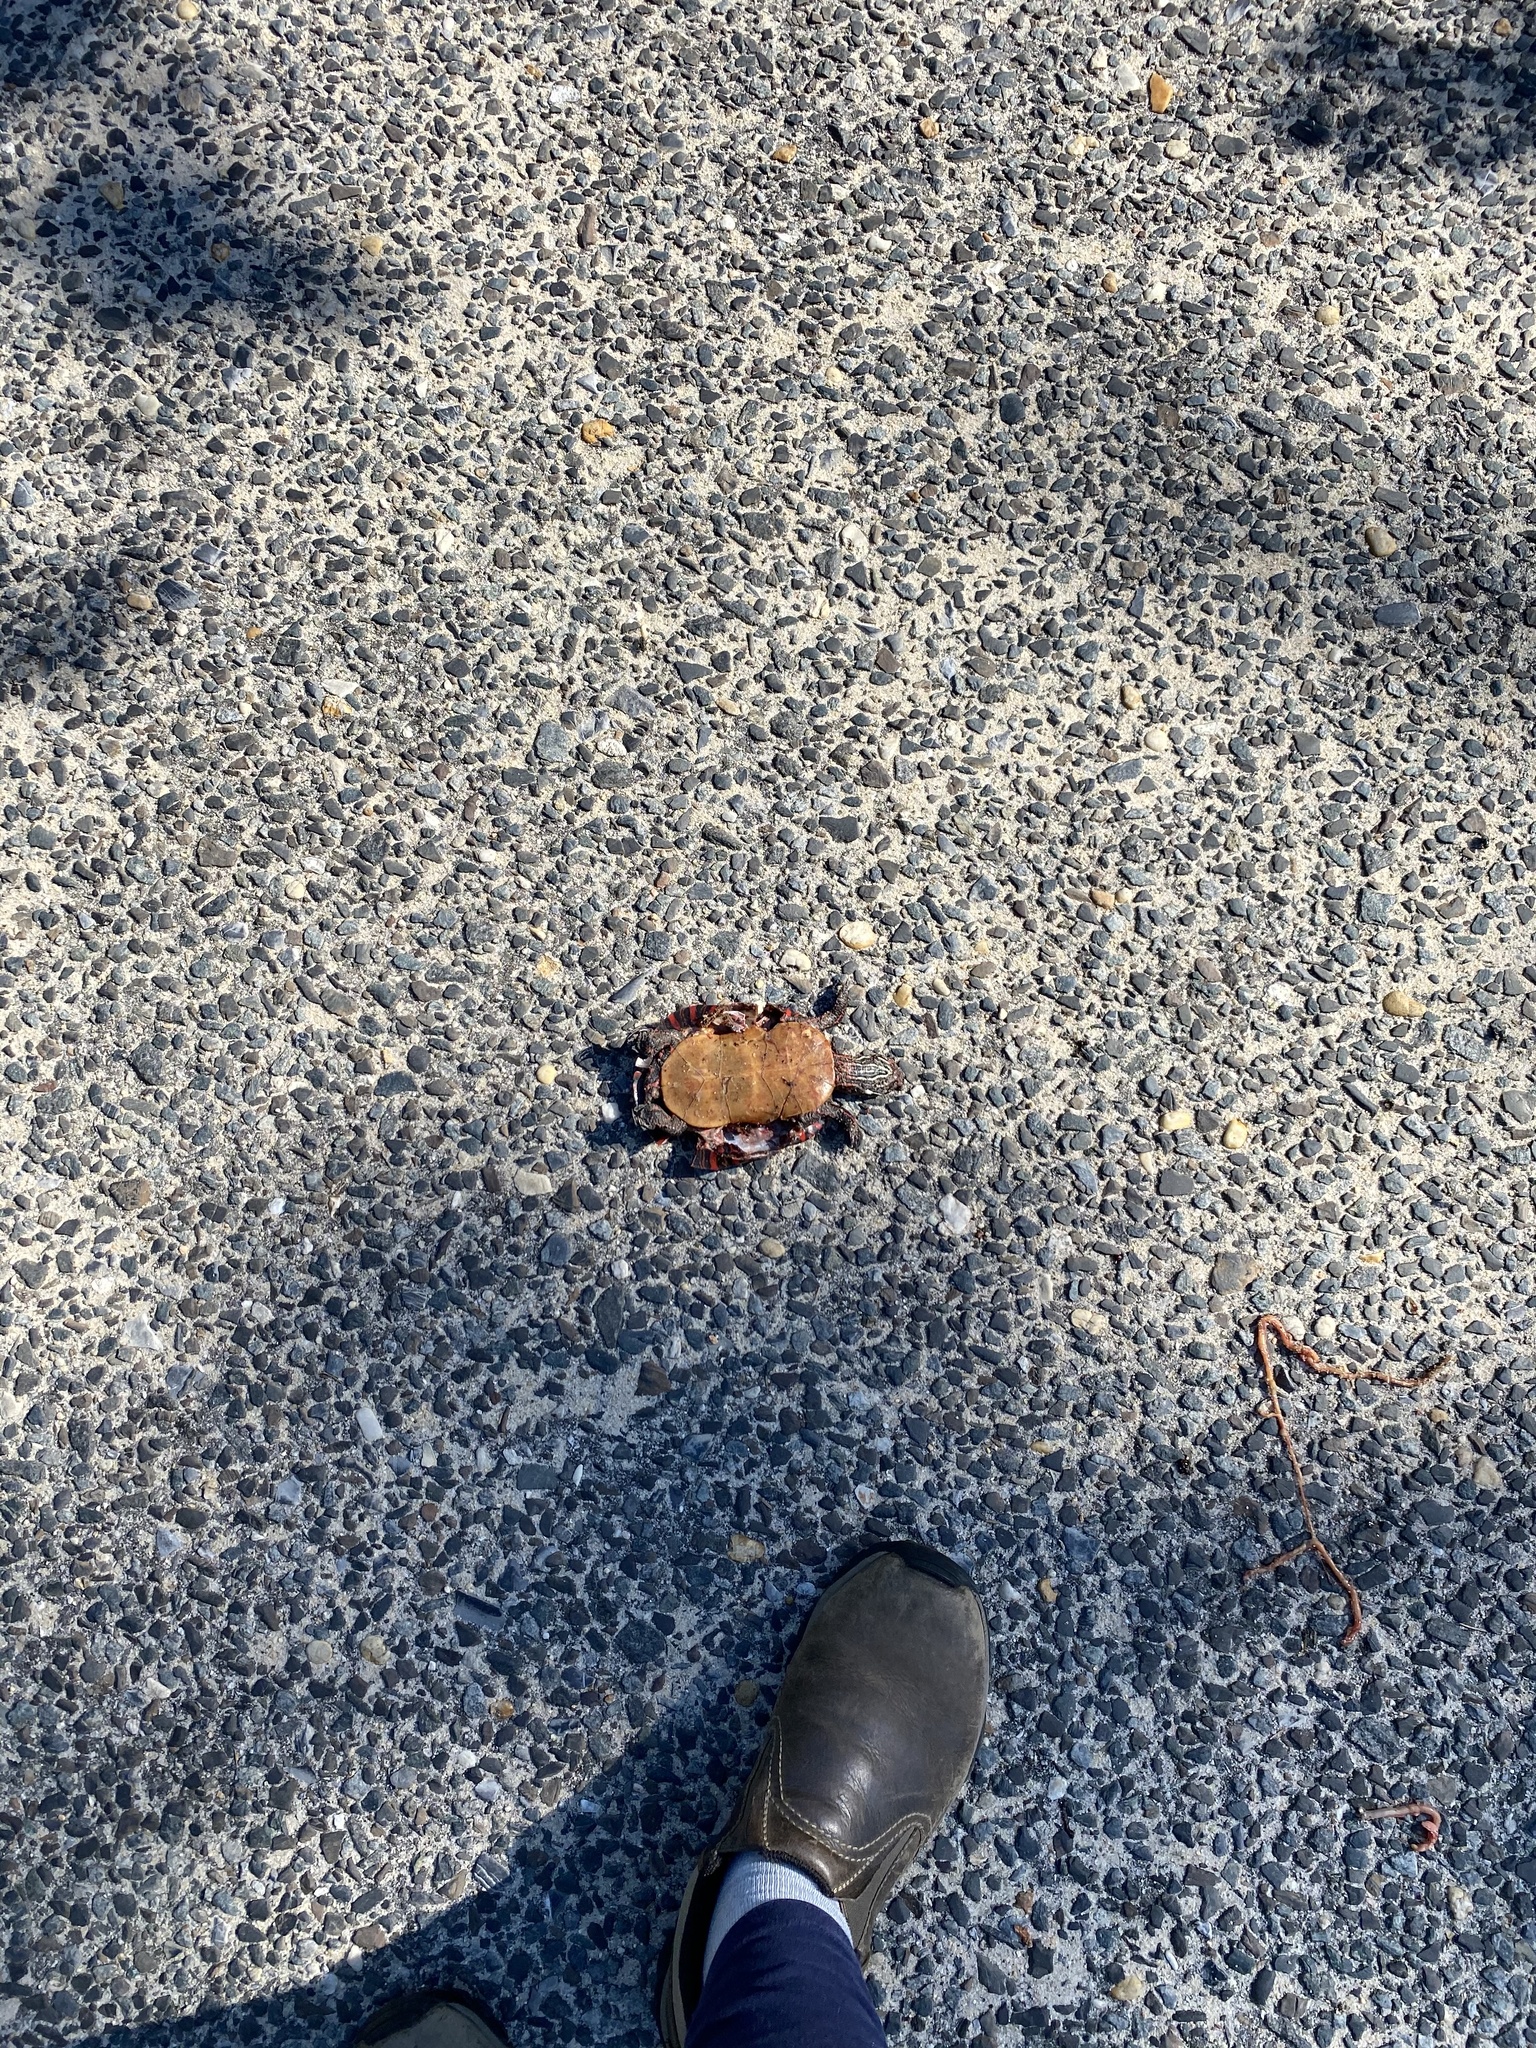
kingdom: Animalia
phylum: Chordata
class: Testudines
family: Emydidae
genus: Chrysemys
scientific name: Chrysemys picta
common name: Painted turtle
